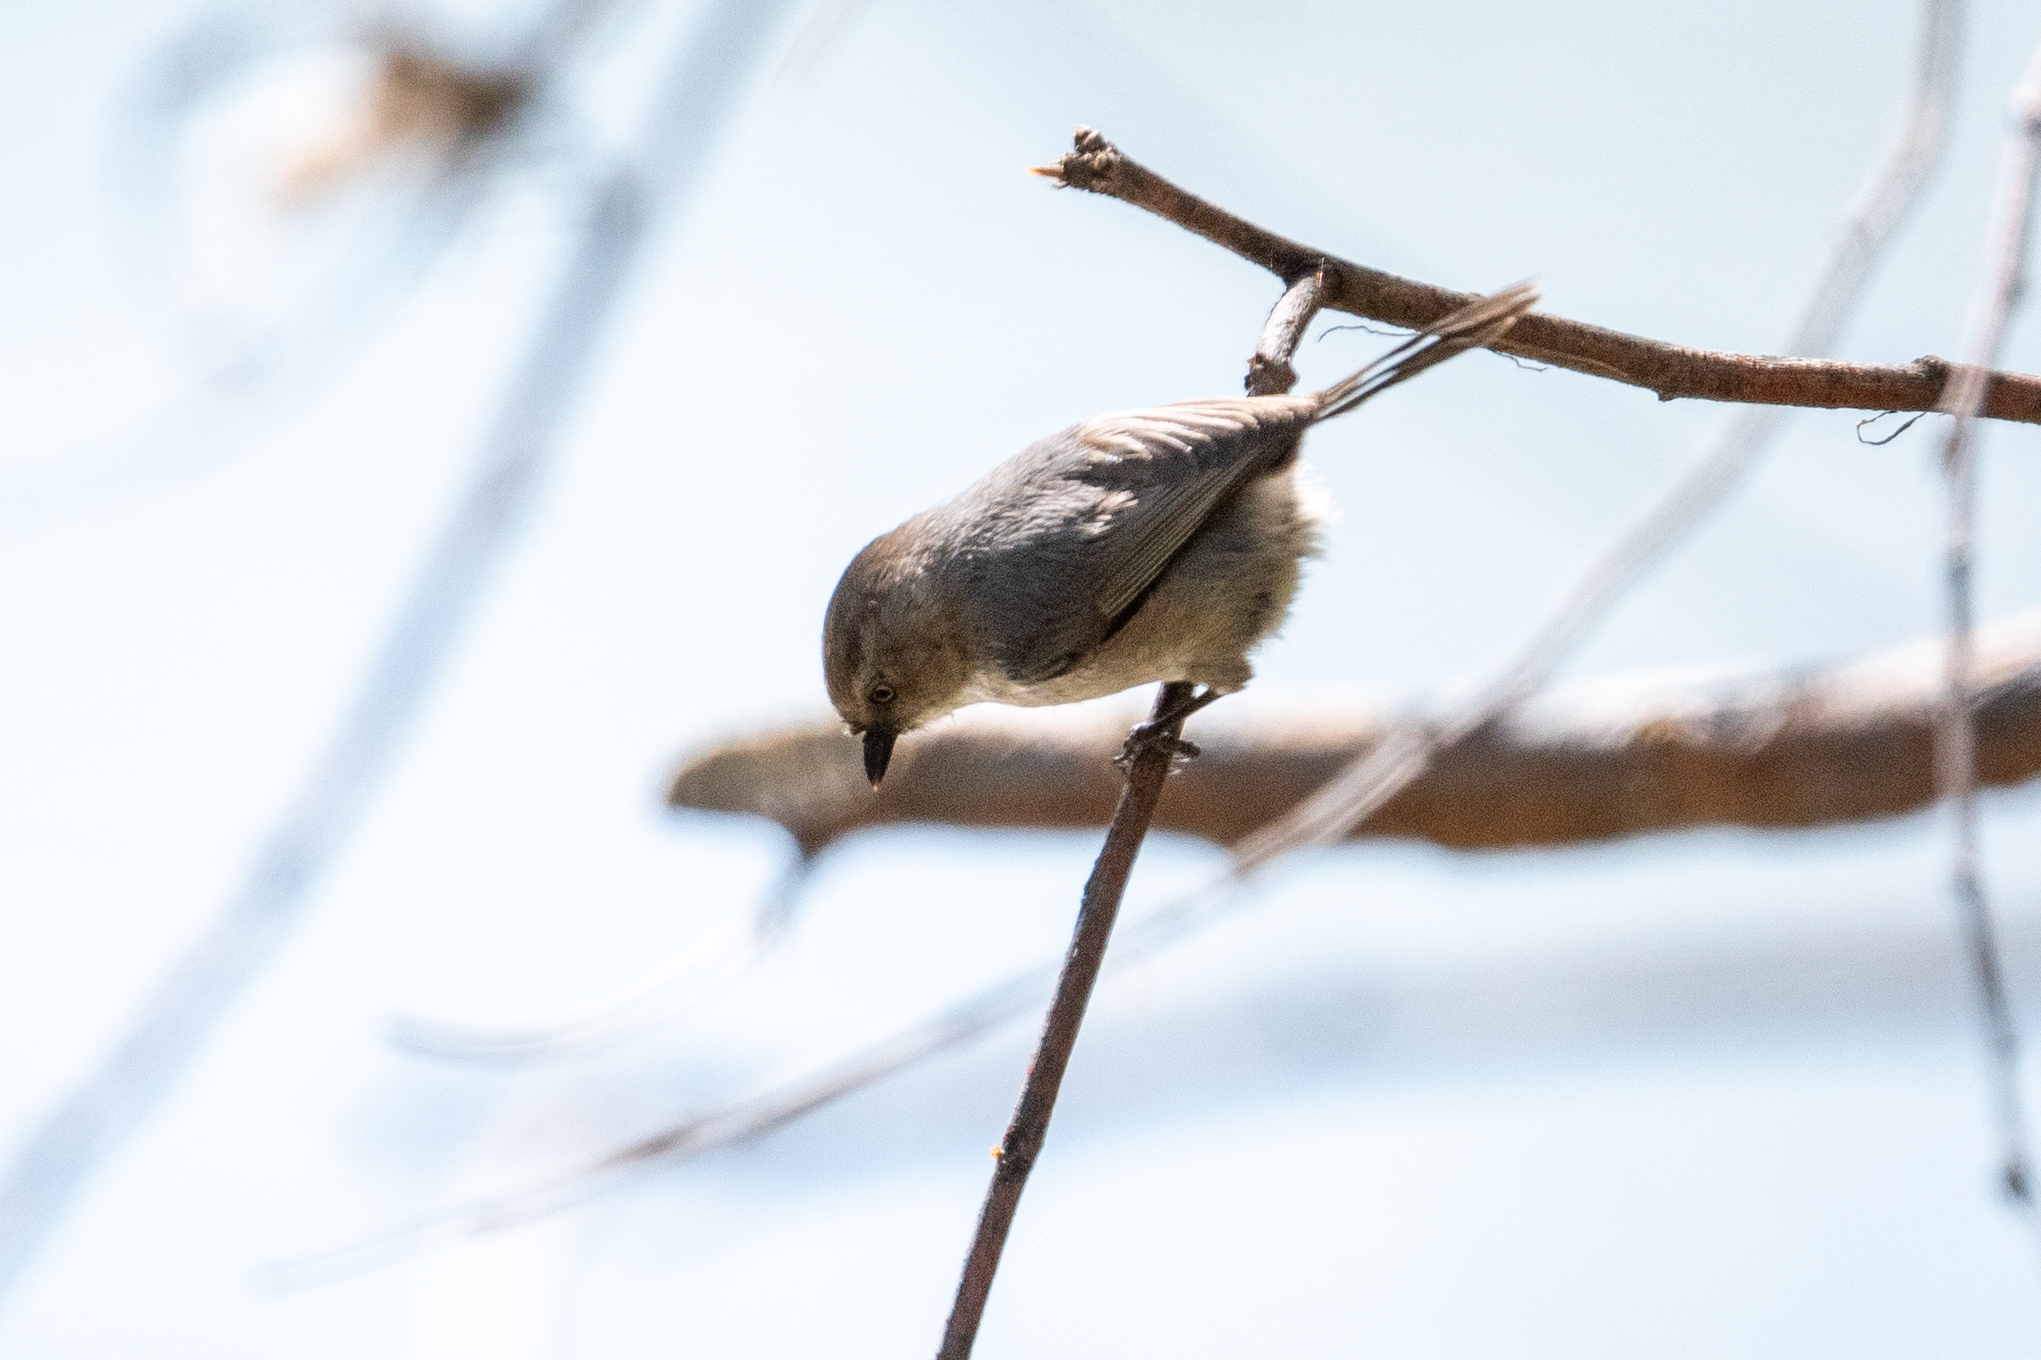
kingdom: Animalia
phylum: Chordata
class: Aves
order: Passeriformes
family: Aegithalidae
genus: Psaltriparus
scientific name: Psaltriparus minimus
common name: American bushtit
